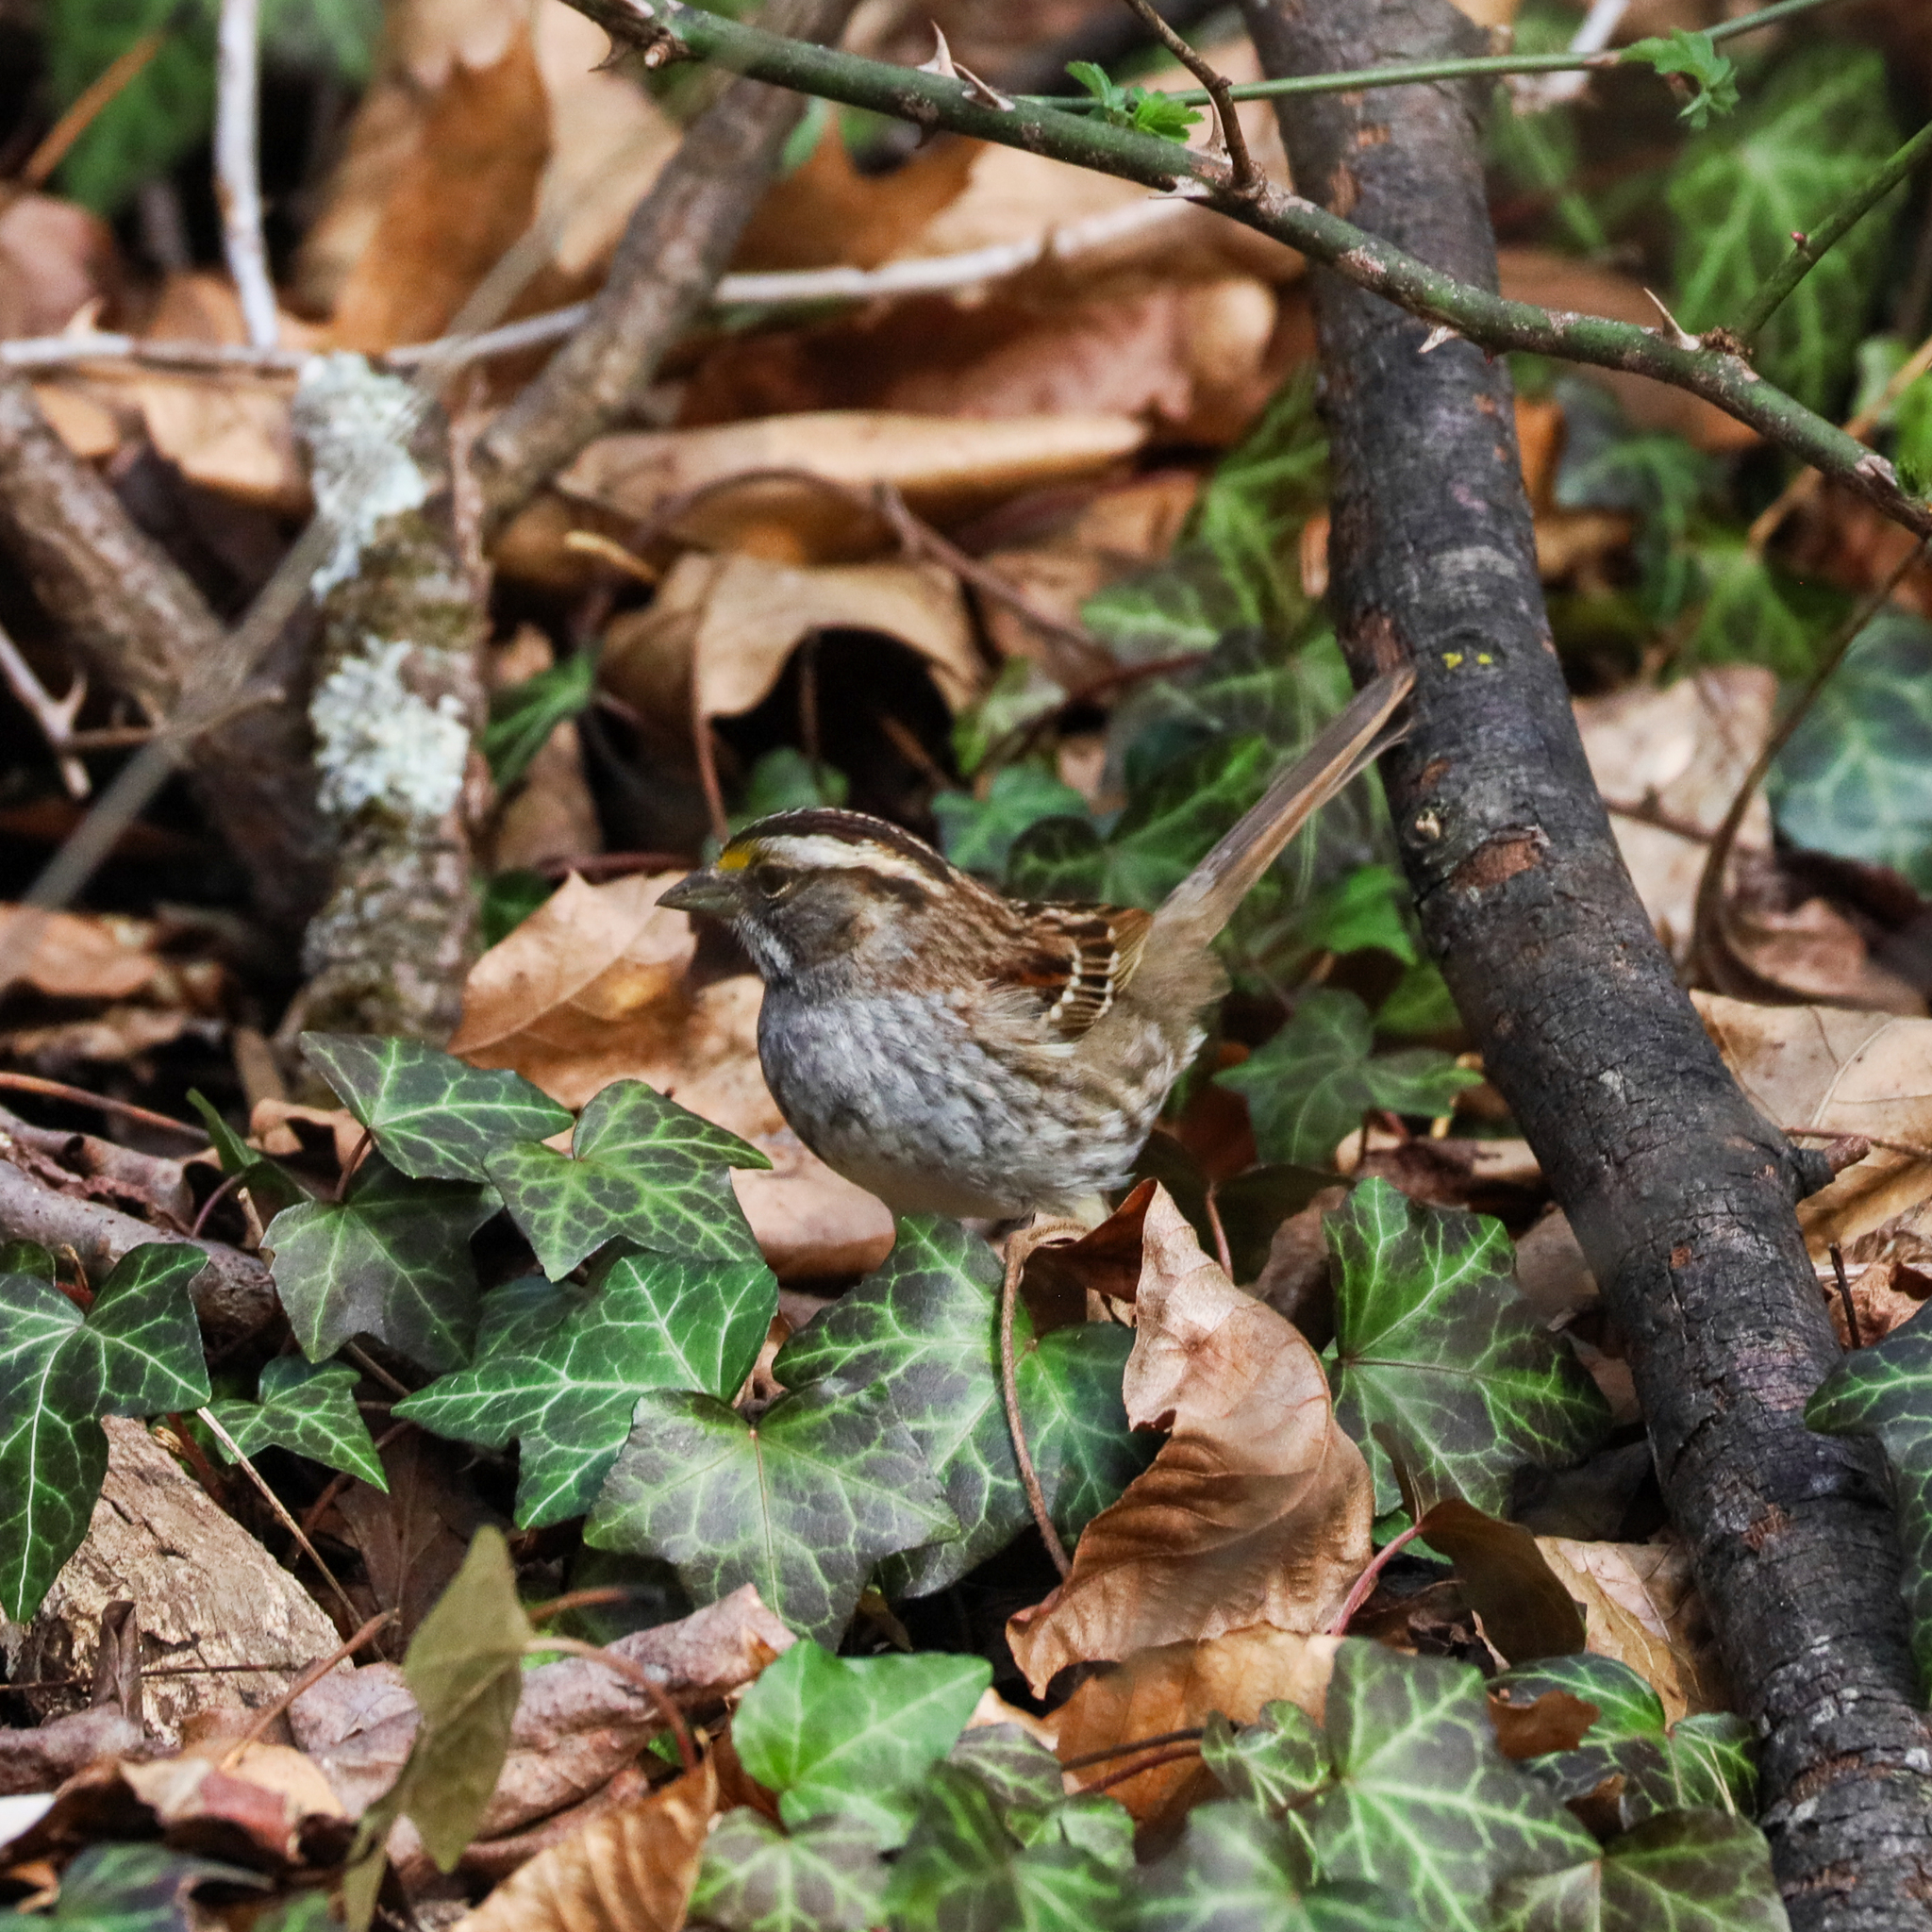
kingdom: Animalia
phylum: Chordata
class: Aves
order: Passeriformes
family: Passerellidae
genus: Zonotrichia
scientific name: Zonotrichia albicollis
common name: White-throated sparrow
